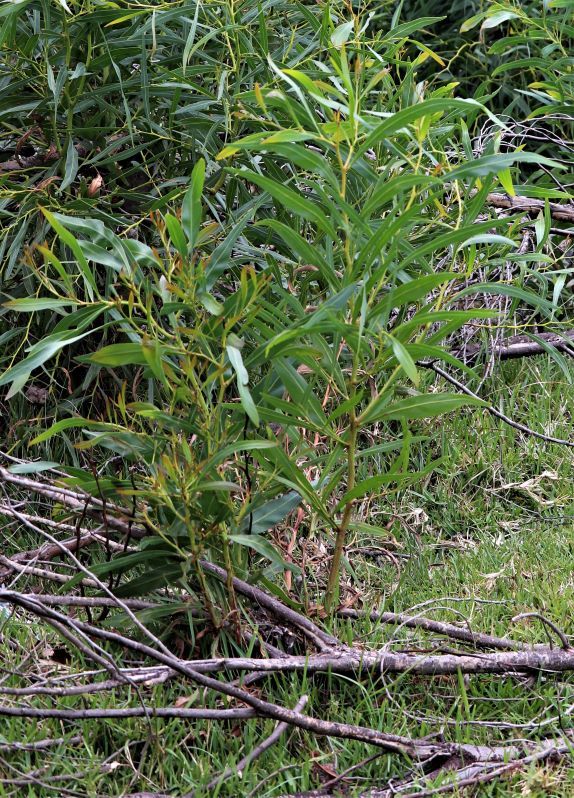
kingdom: Plantae
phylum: Tracheophyta
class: Magnoliopsida
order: Fabales
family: Fabaceae
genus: Acacia
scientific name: Acacia saligna
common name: Orange wattle
